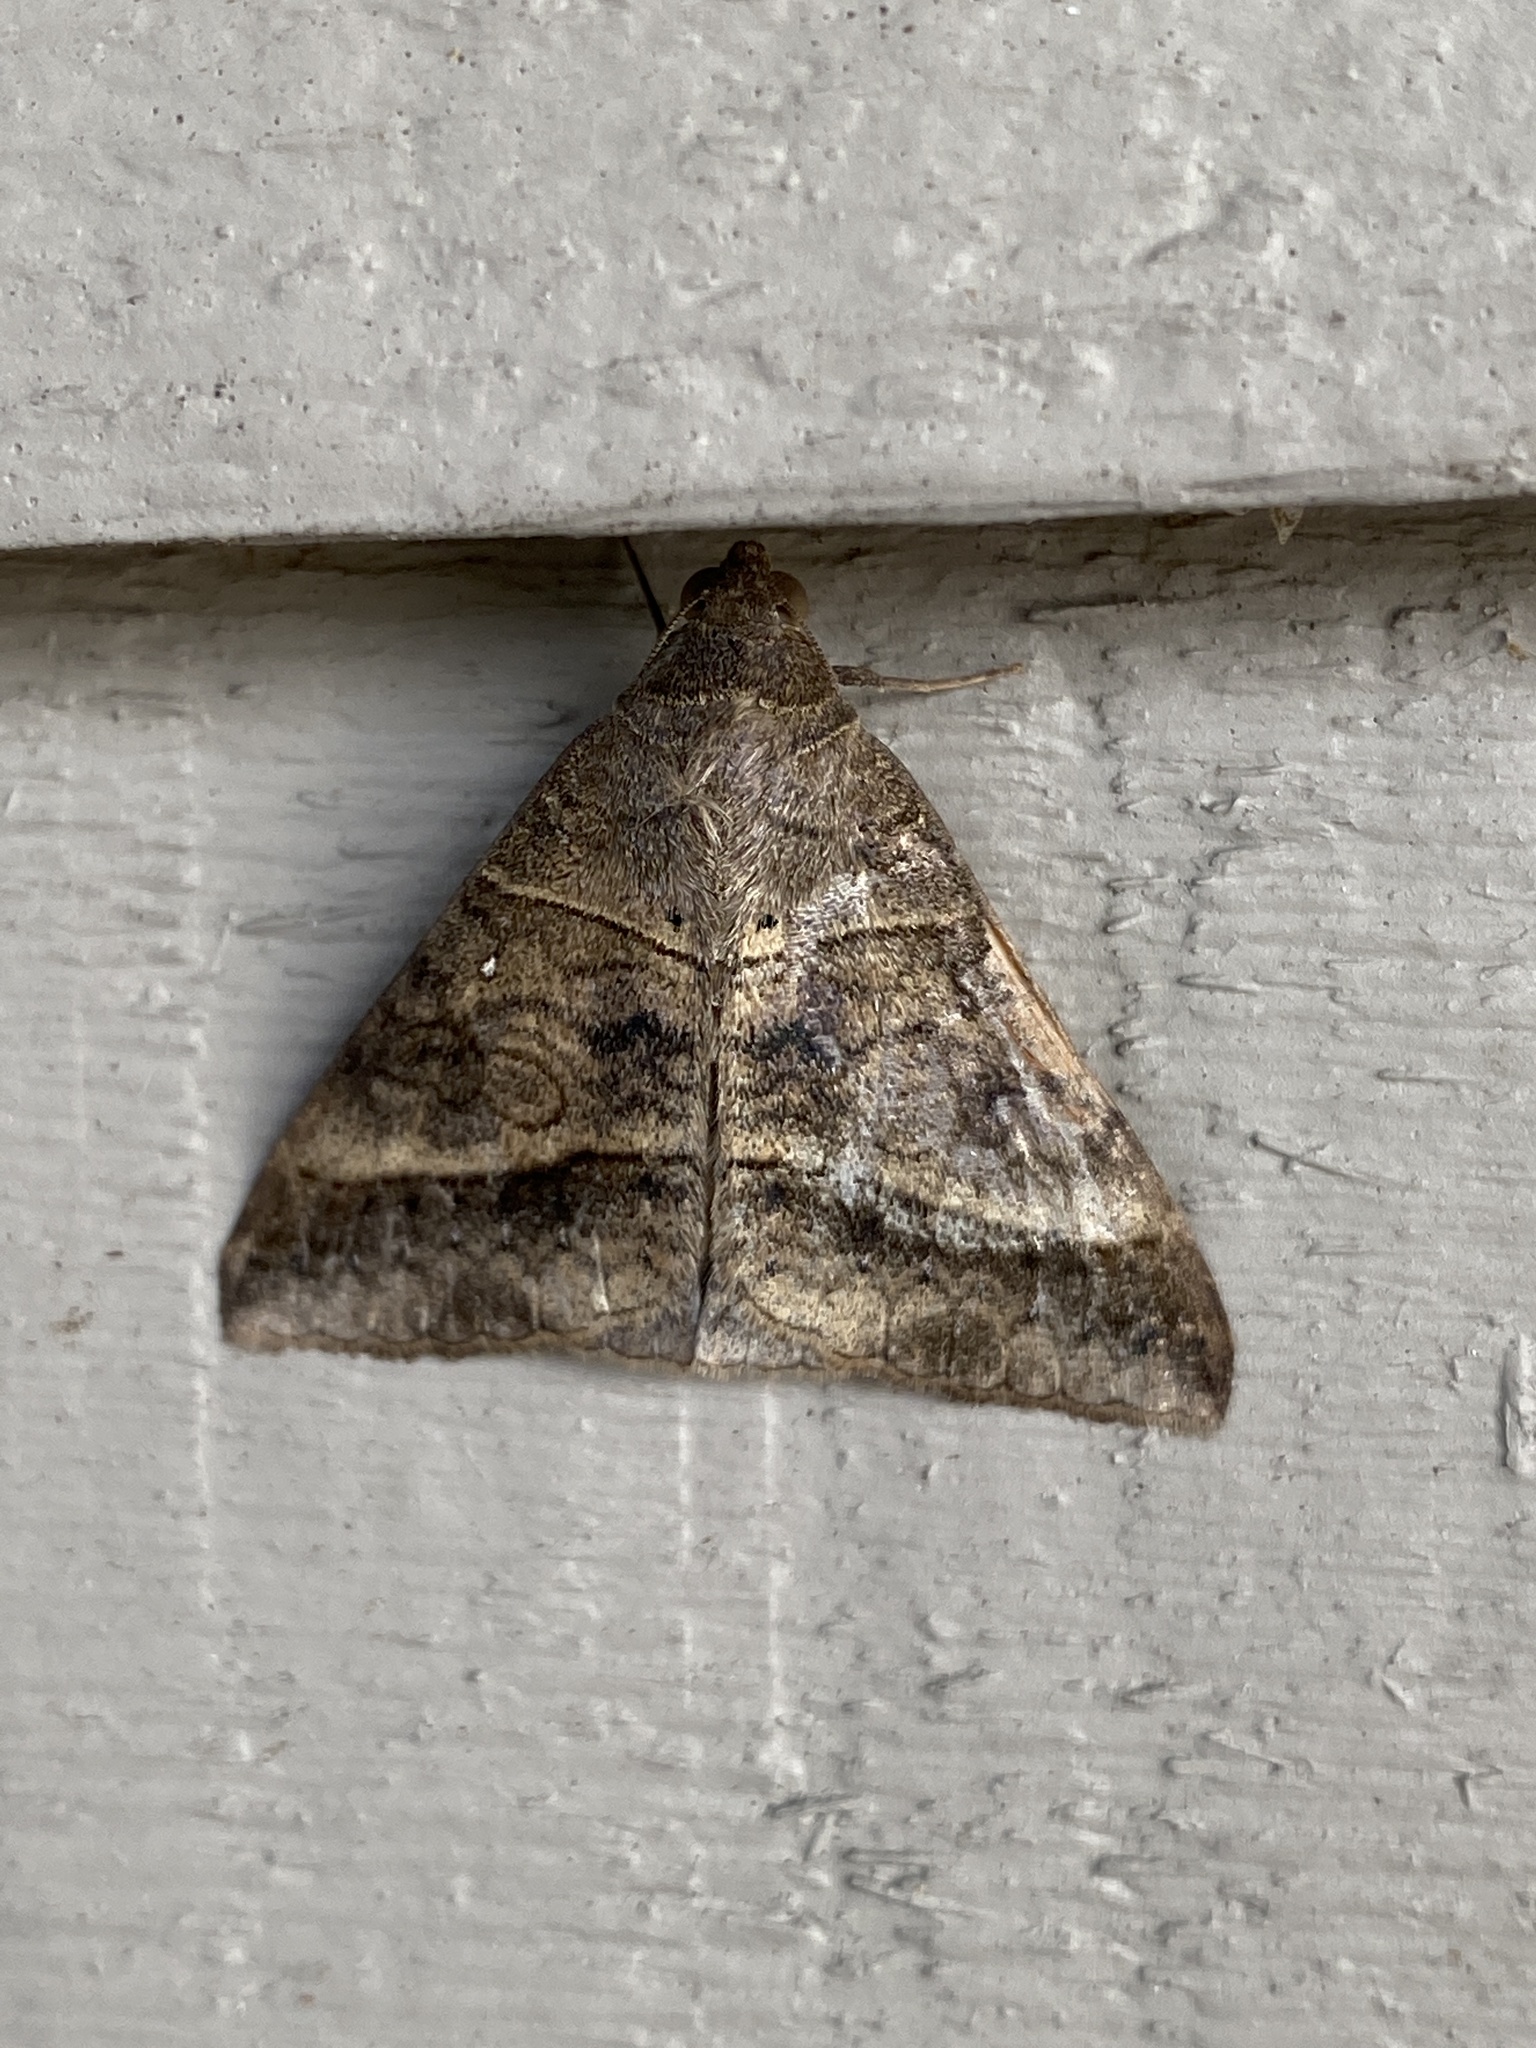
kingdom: Animalia
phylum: Arthropoda
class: Insecta
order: Lepidoptera
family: Erebidae
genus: Mocis
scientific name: Mocis latipes
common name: Striped grass looper
